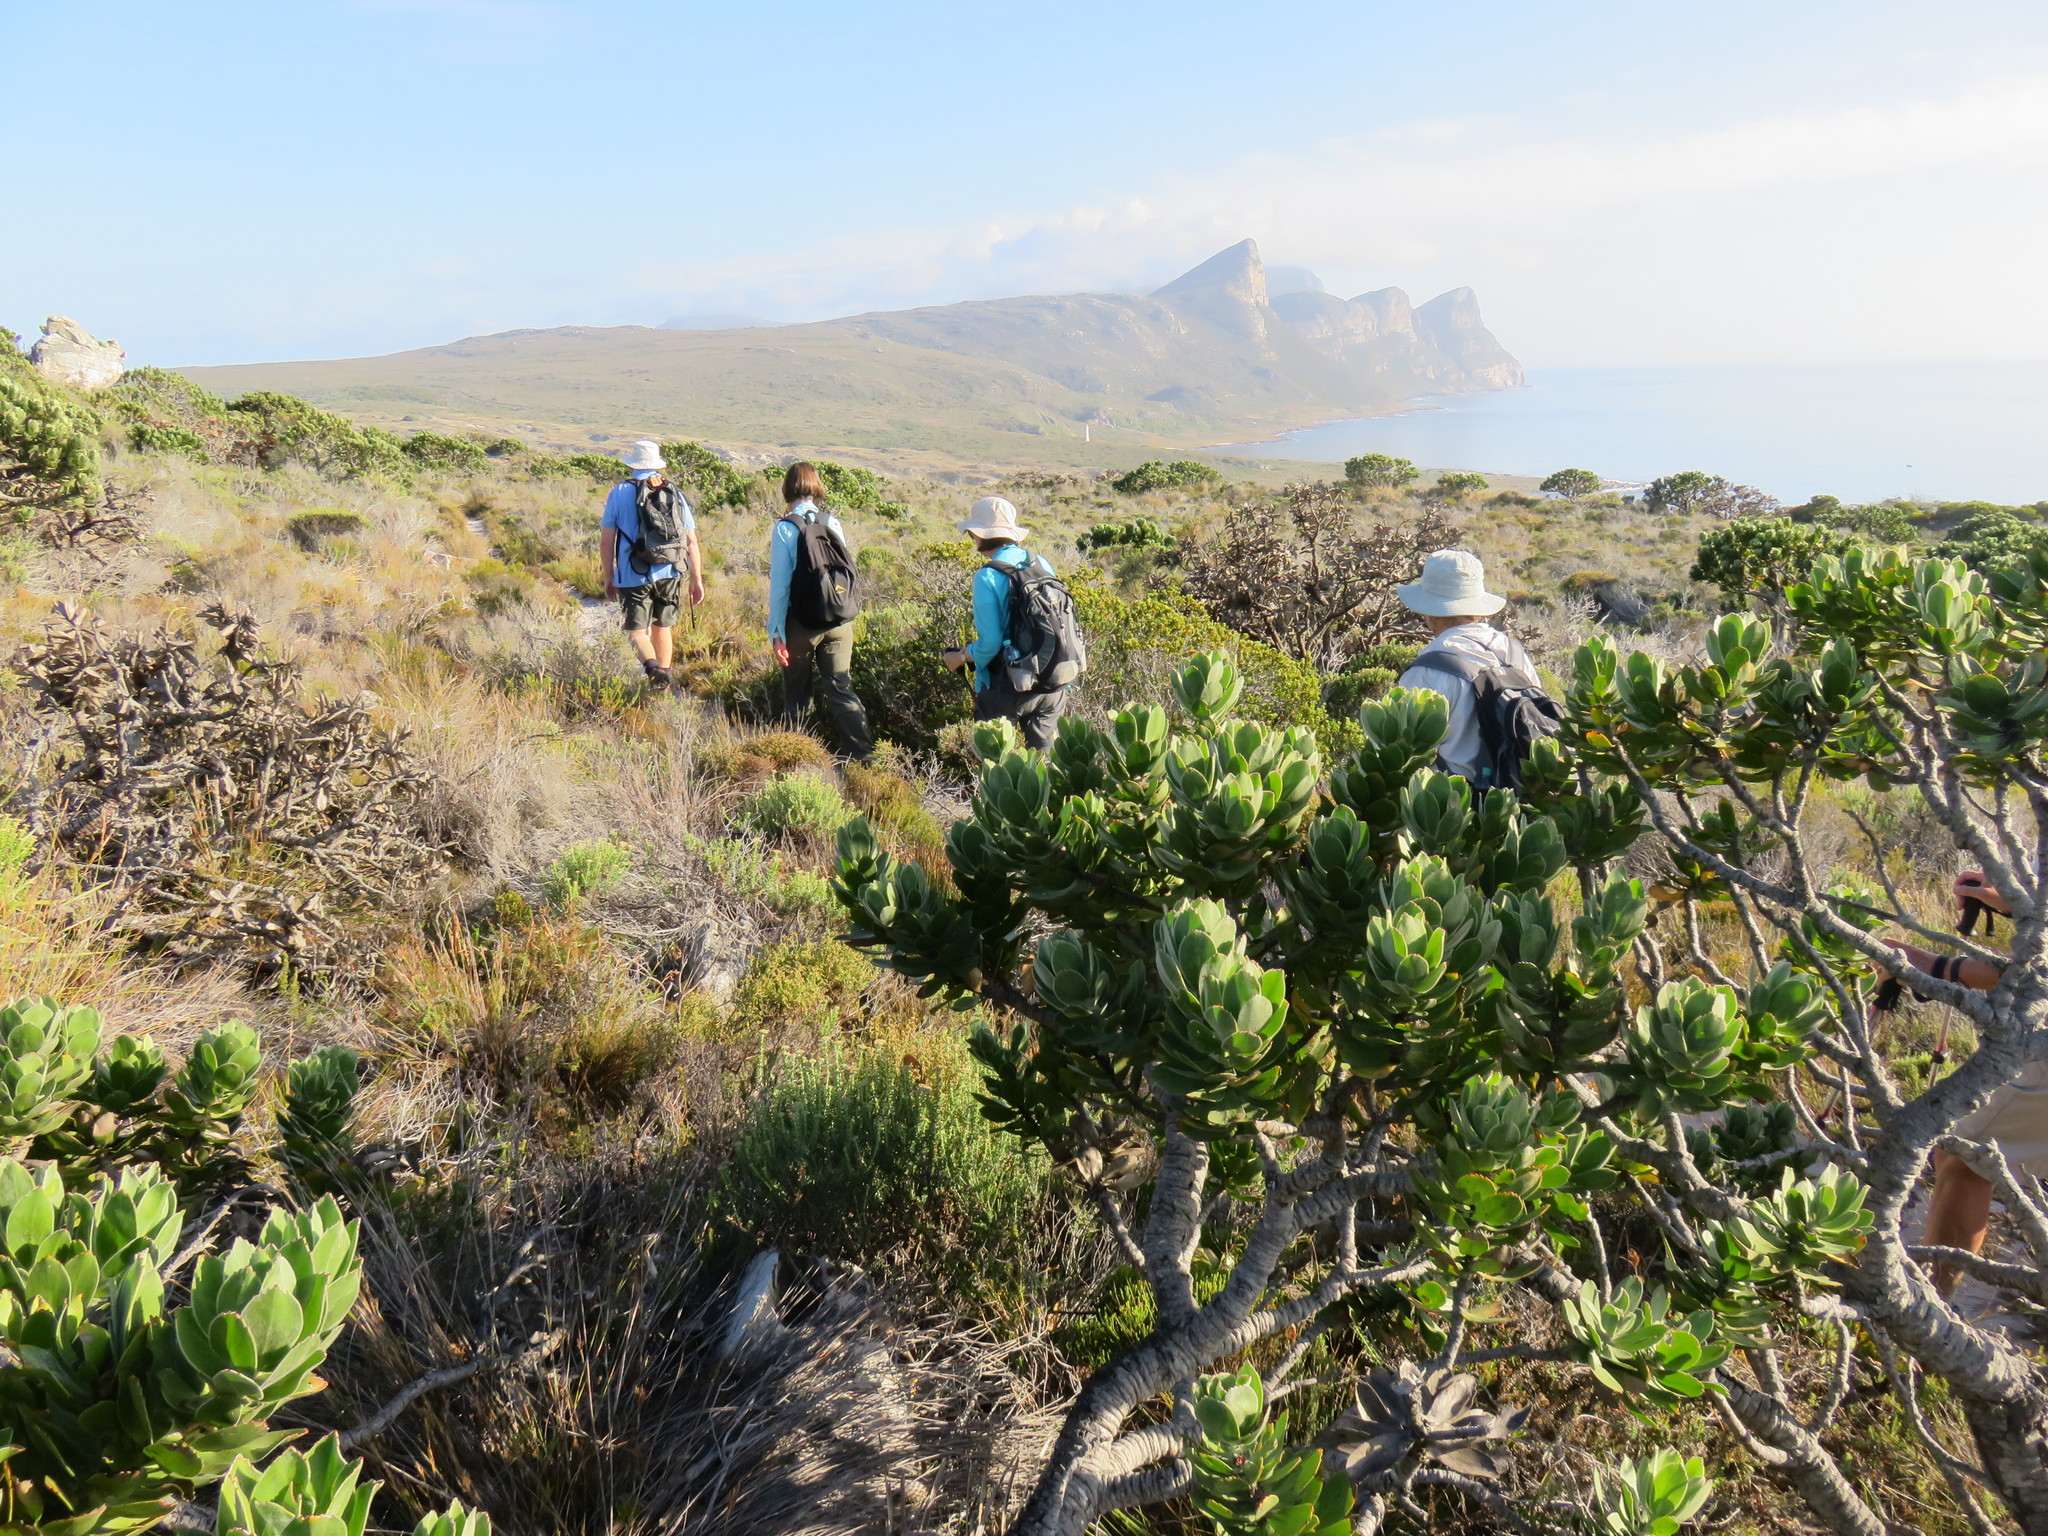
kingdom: Plantae
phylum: Tracheophyta
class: Magnoliopsida
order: Proteales
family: Proteaceae
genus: Leucospermum
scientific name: Leucospermum conocarpodendron
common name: Tree pincushion
